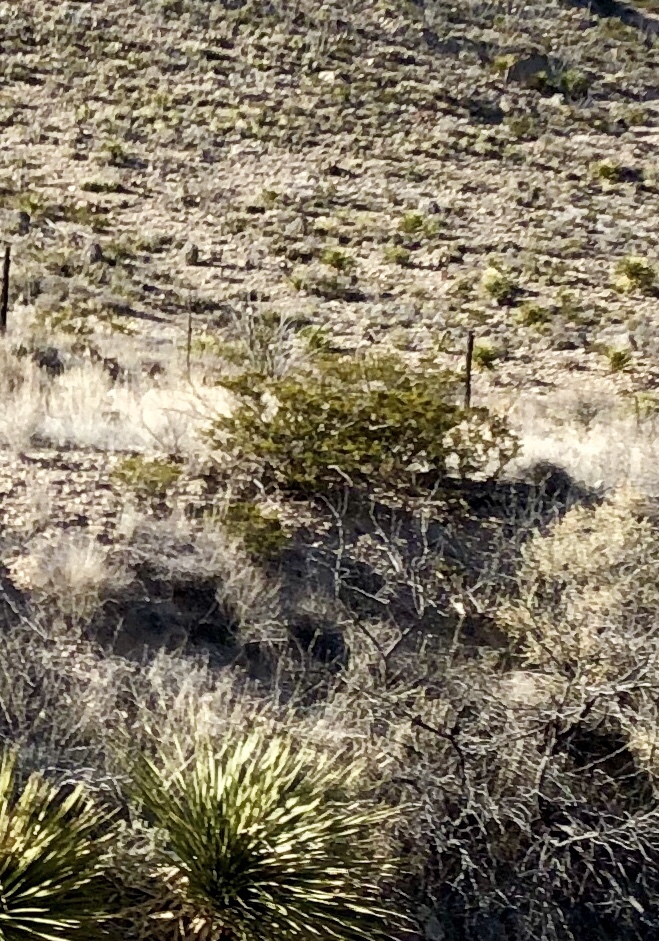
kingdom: Plantae
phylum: Tracheophyta
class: Magnoliopsida
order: Zygophyllales
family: Zygophyllaceae
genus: Larrea
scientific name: Larrea tridentata
